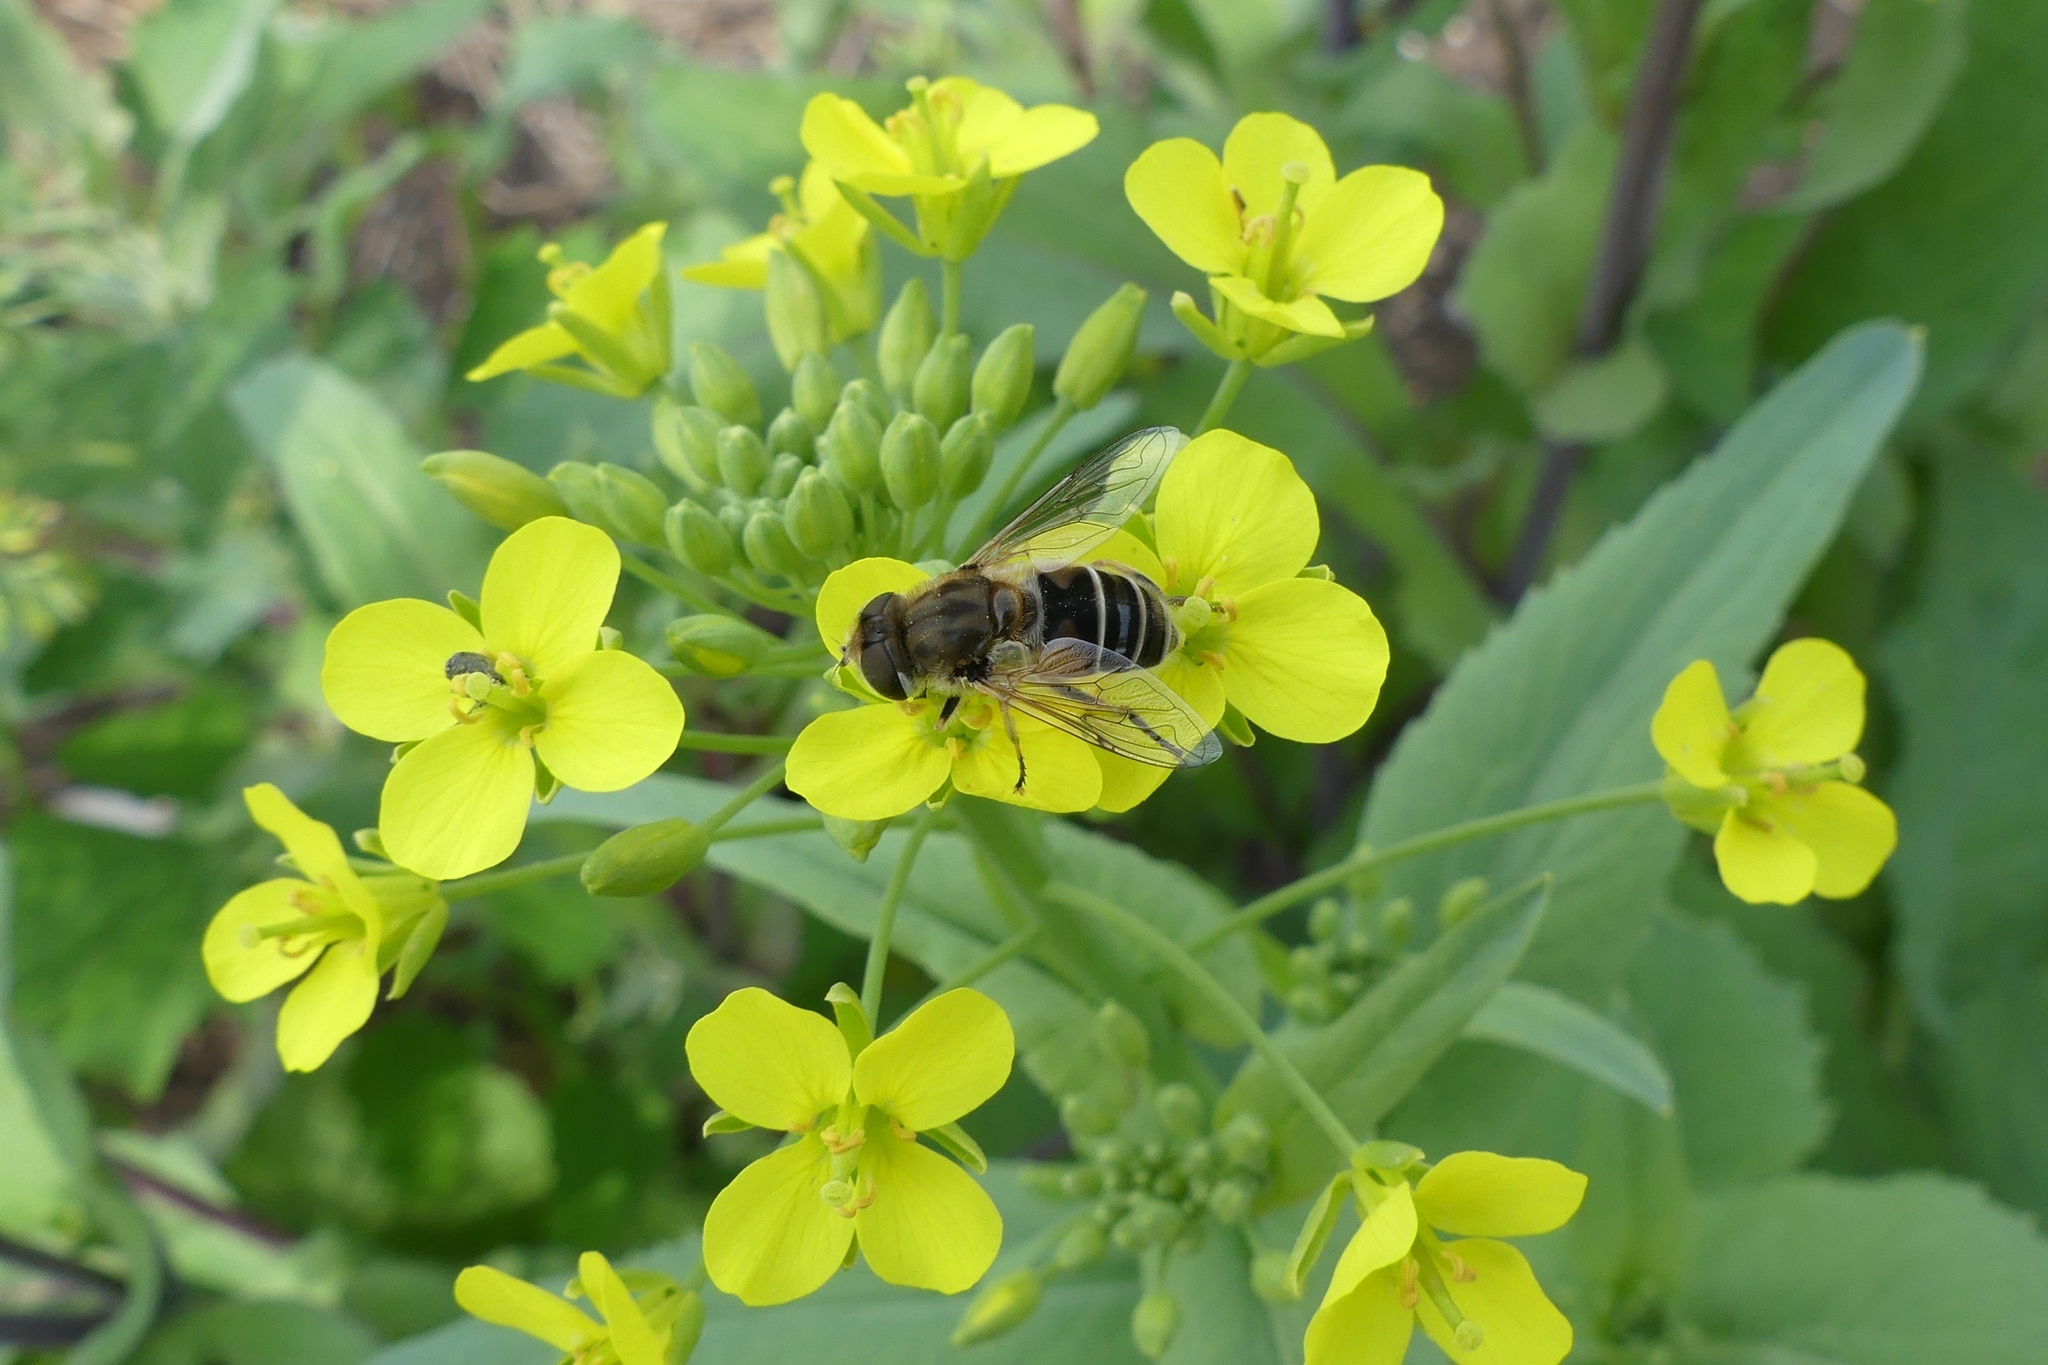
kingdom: Animalia
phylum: Arthropoda
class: Insecta
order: Diptera
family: Syrphidae
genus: Eristalis
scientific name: Eristalis arbustorum
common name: Hover fly
